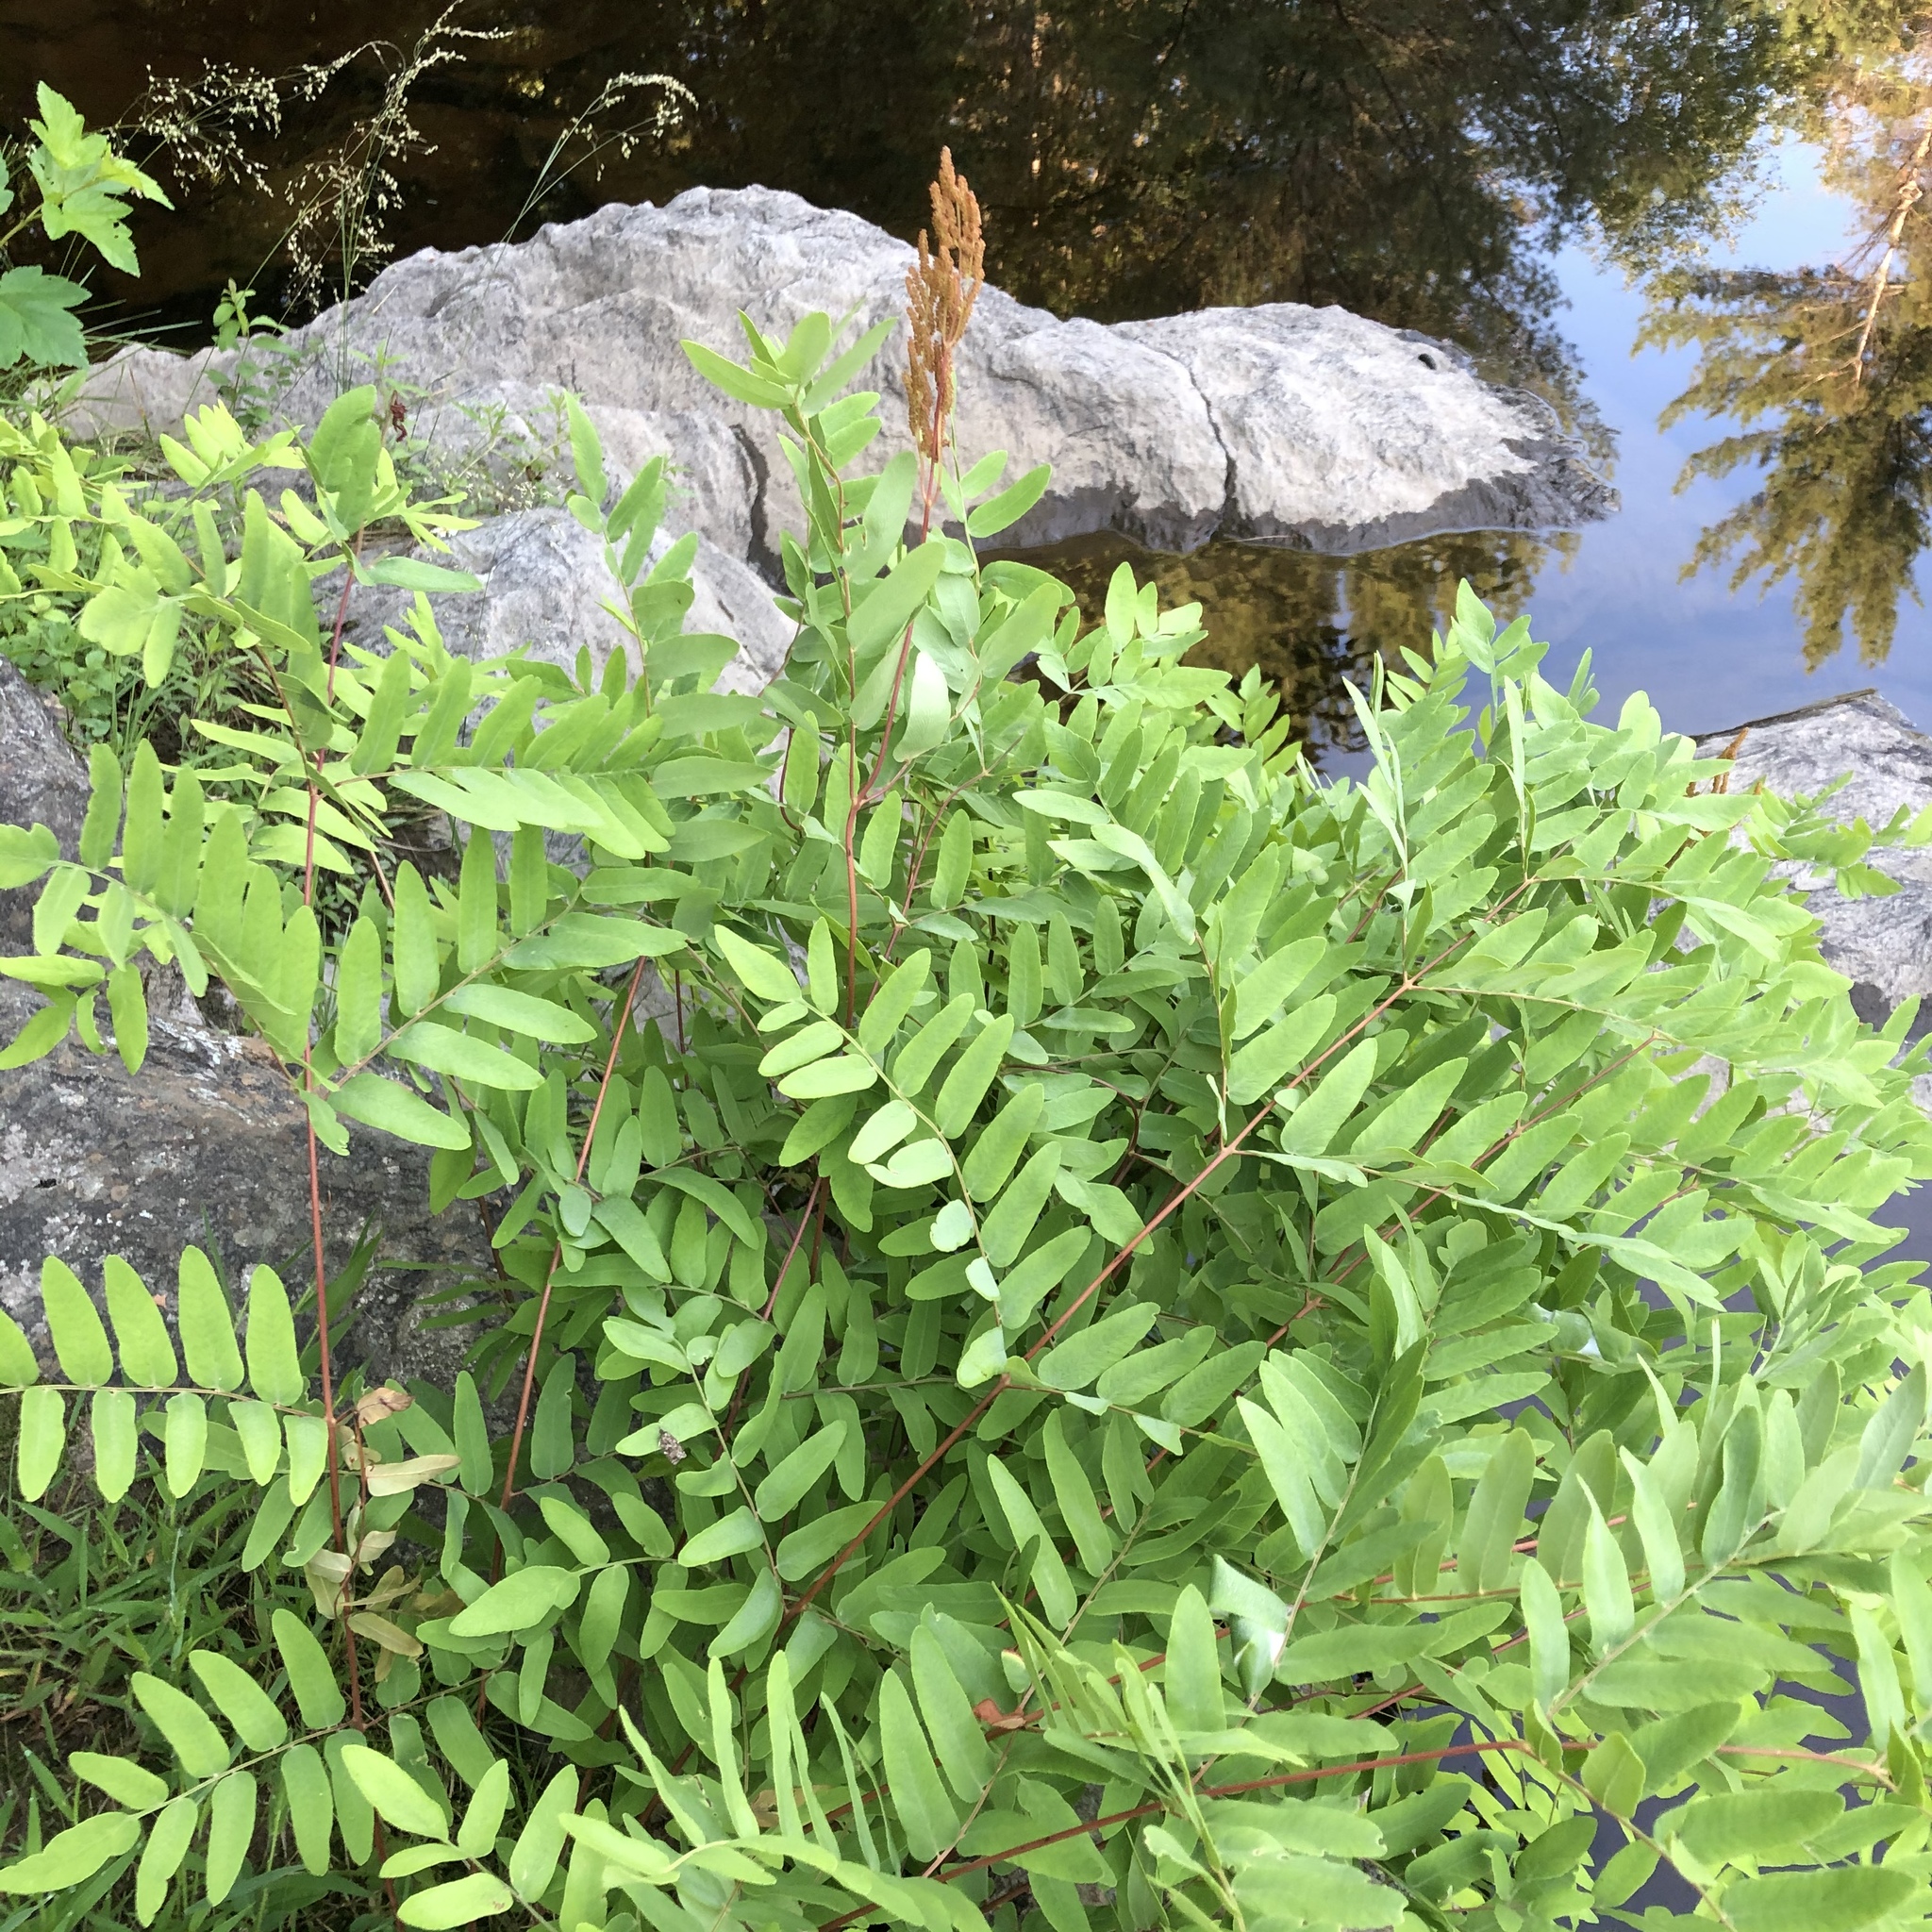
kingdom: Plantae
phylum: Tracheophyta
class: Polypodiopsida
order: Osmundales
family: Osmundaceae
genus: Osmunda
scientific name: Osmunda spectabilis
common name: American royal fern
